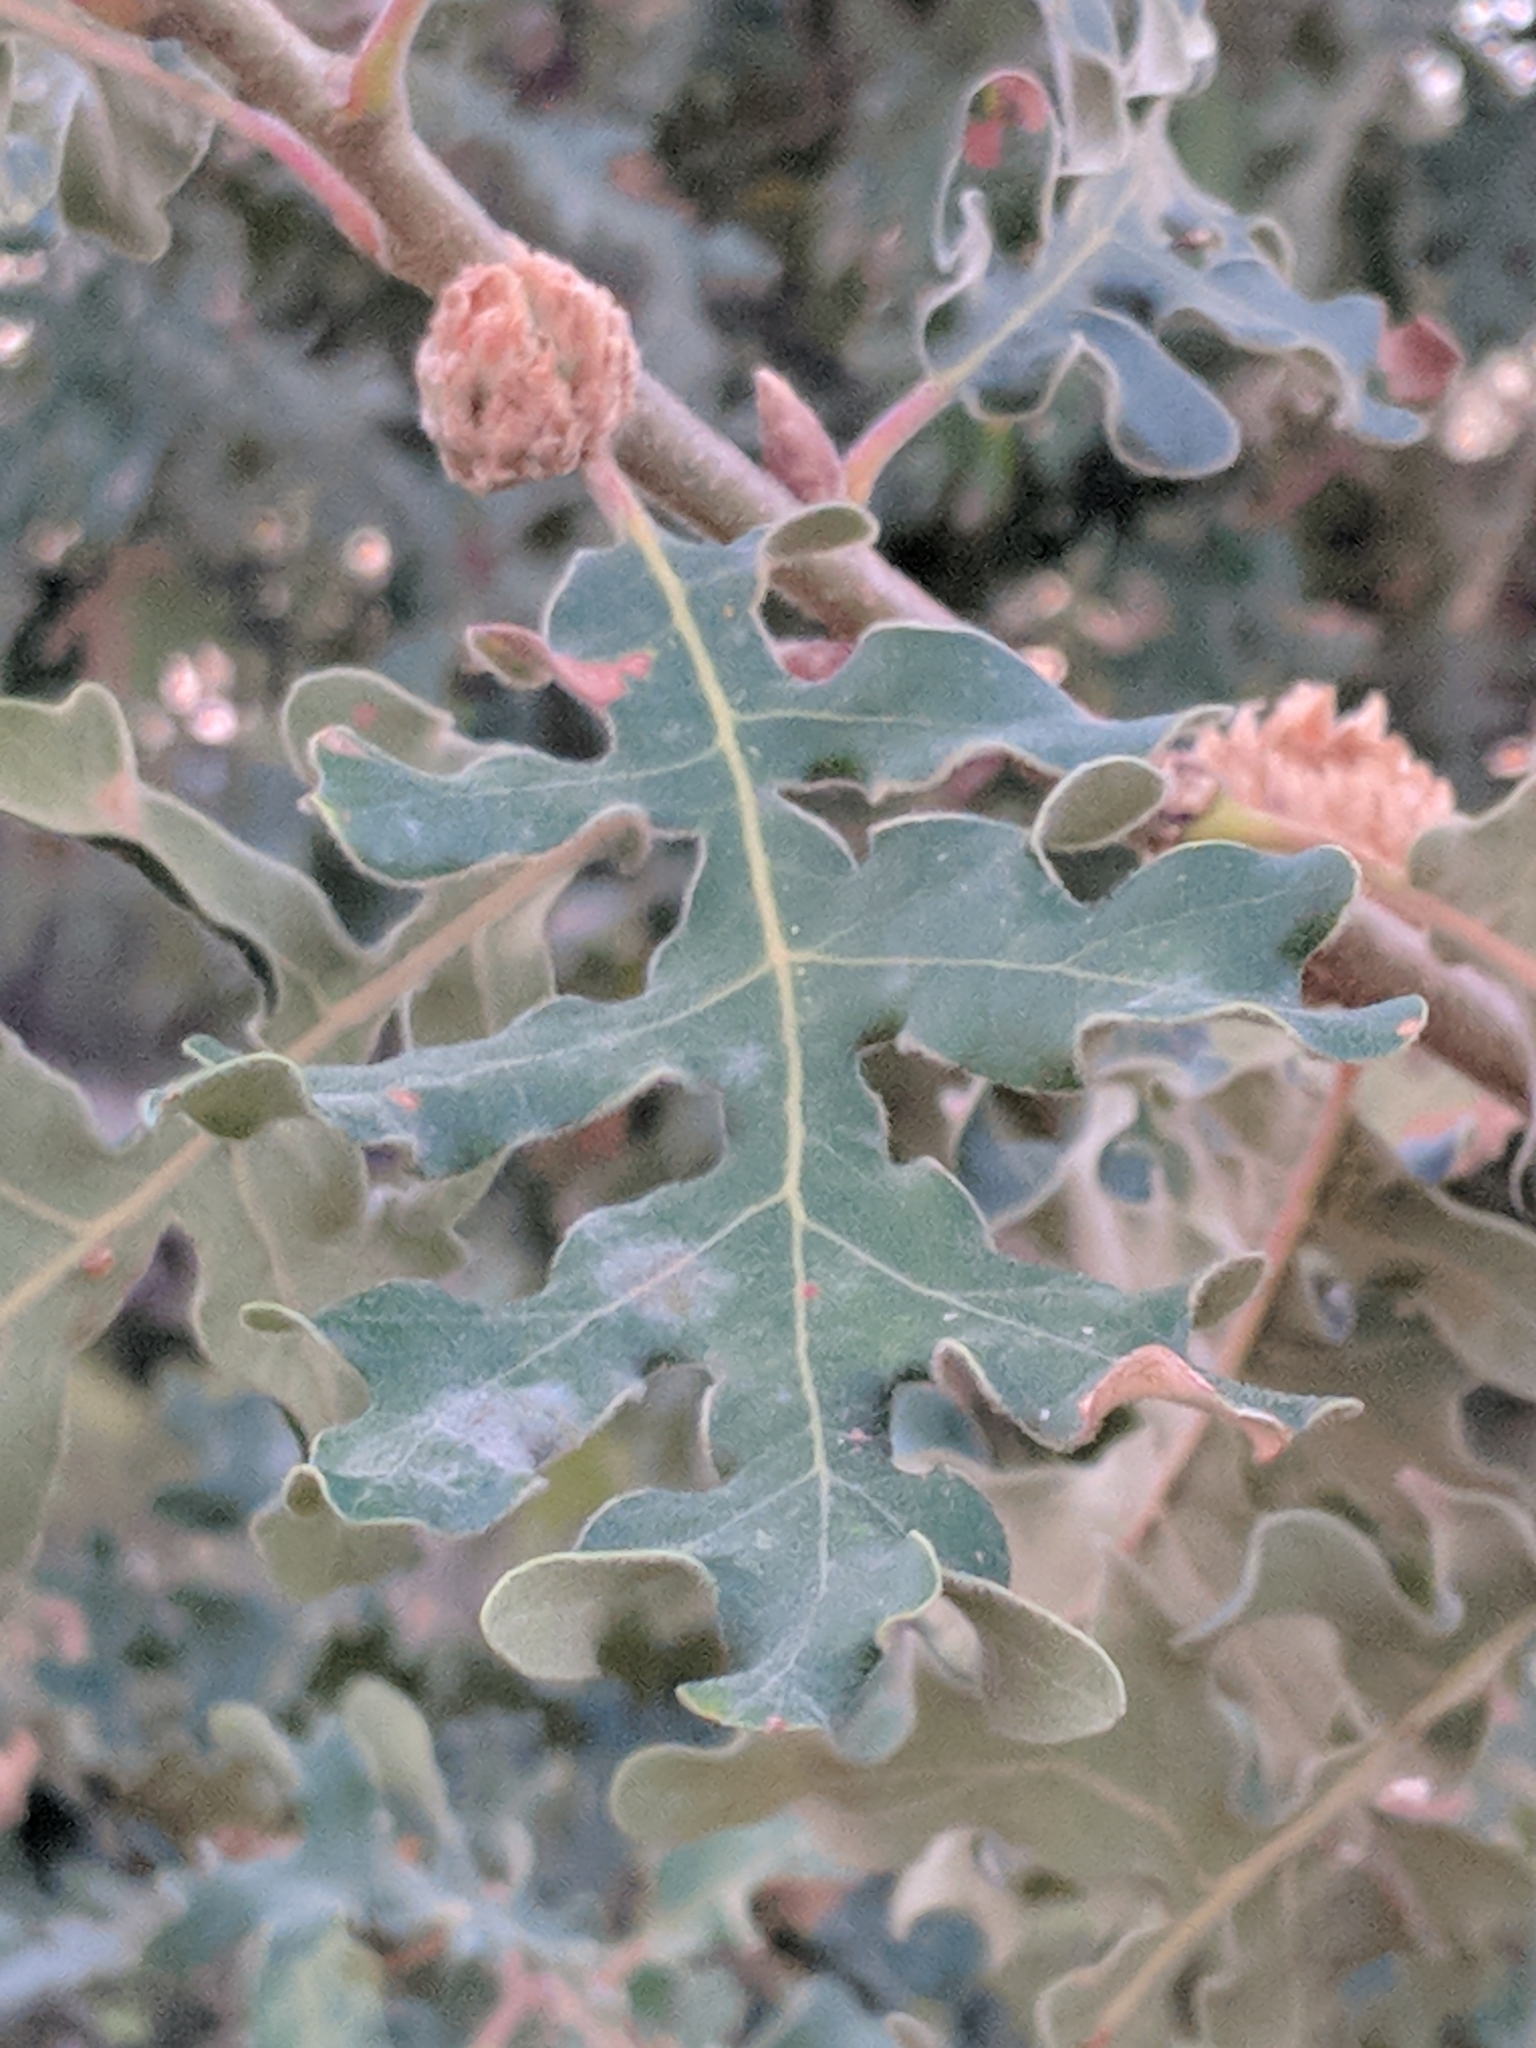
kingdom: Plantae
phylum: Tracheophyta
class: Magnoliopsida
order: Fagales
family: Fagaceae
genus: Quercus
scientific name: Quercus pyrenaica
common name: Pyrenean oak
